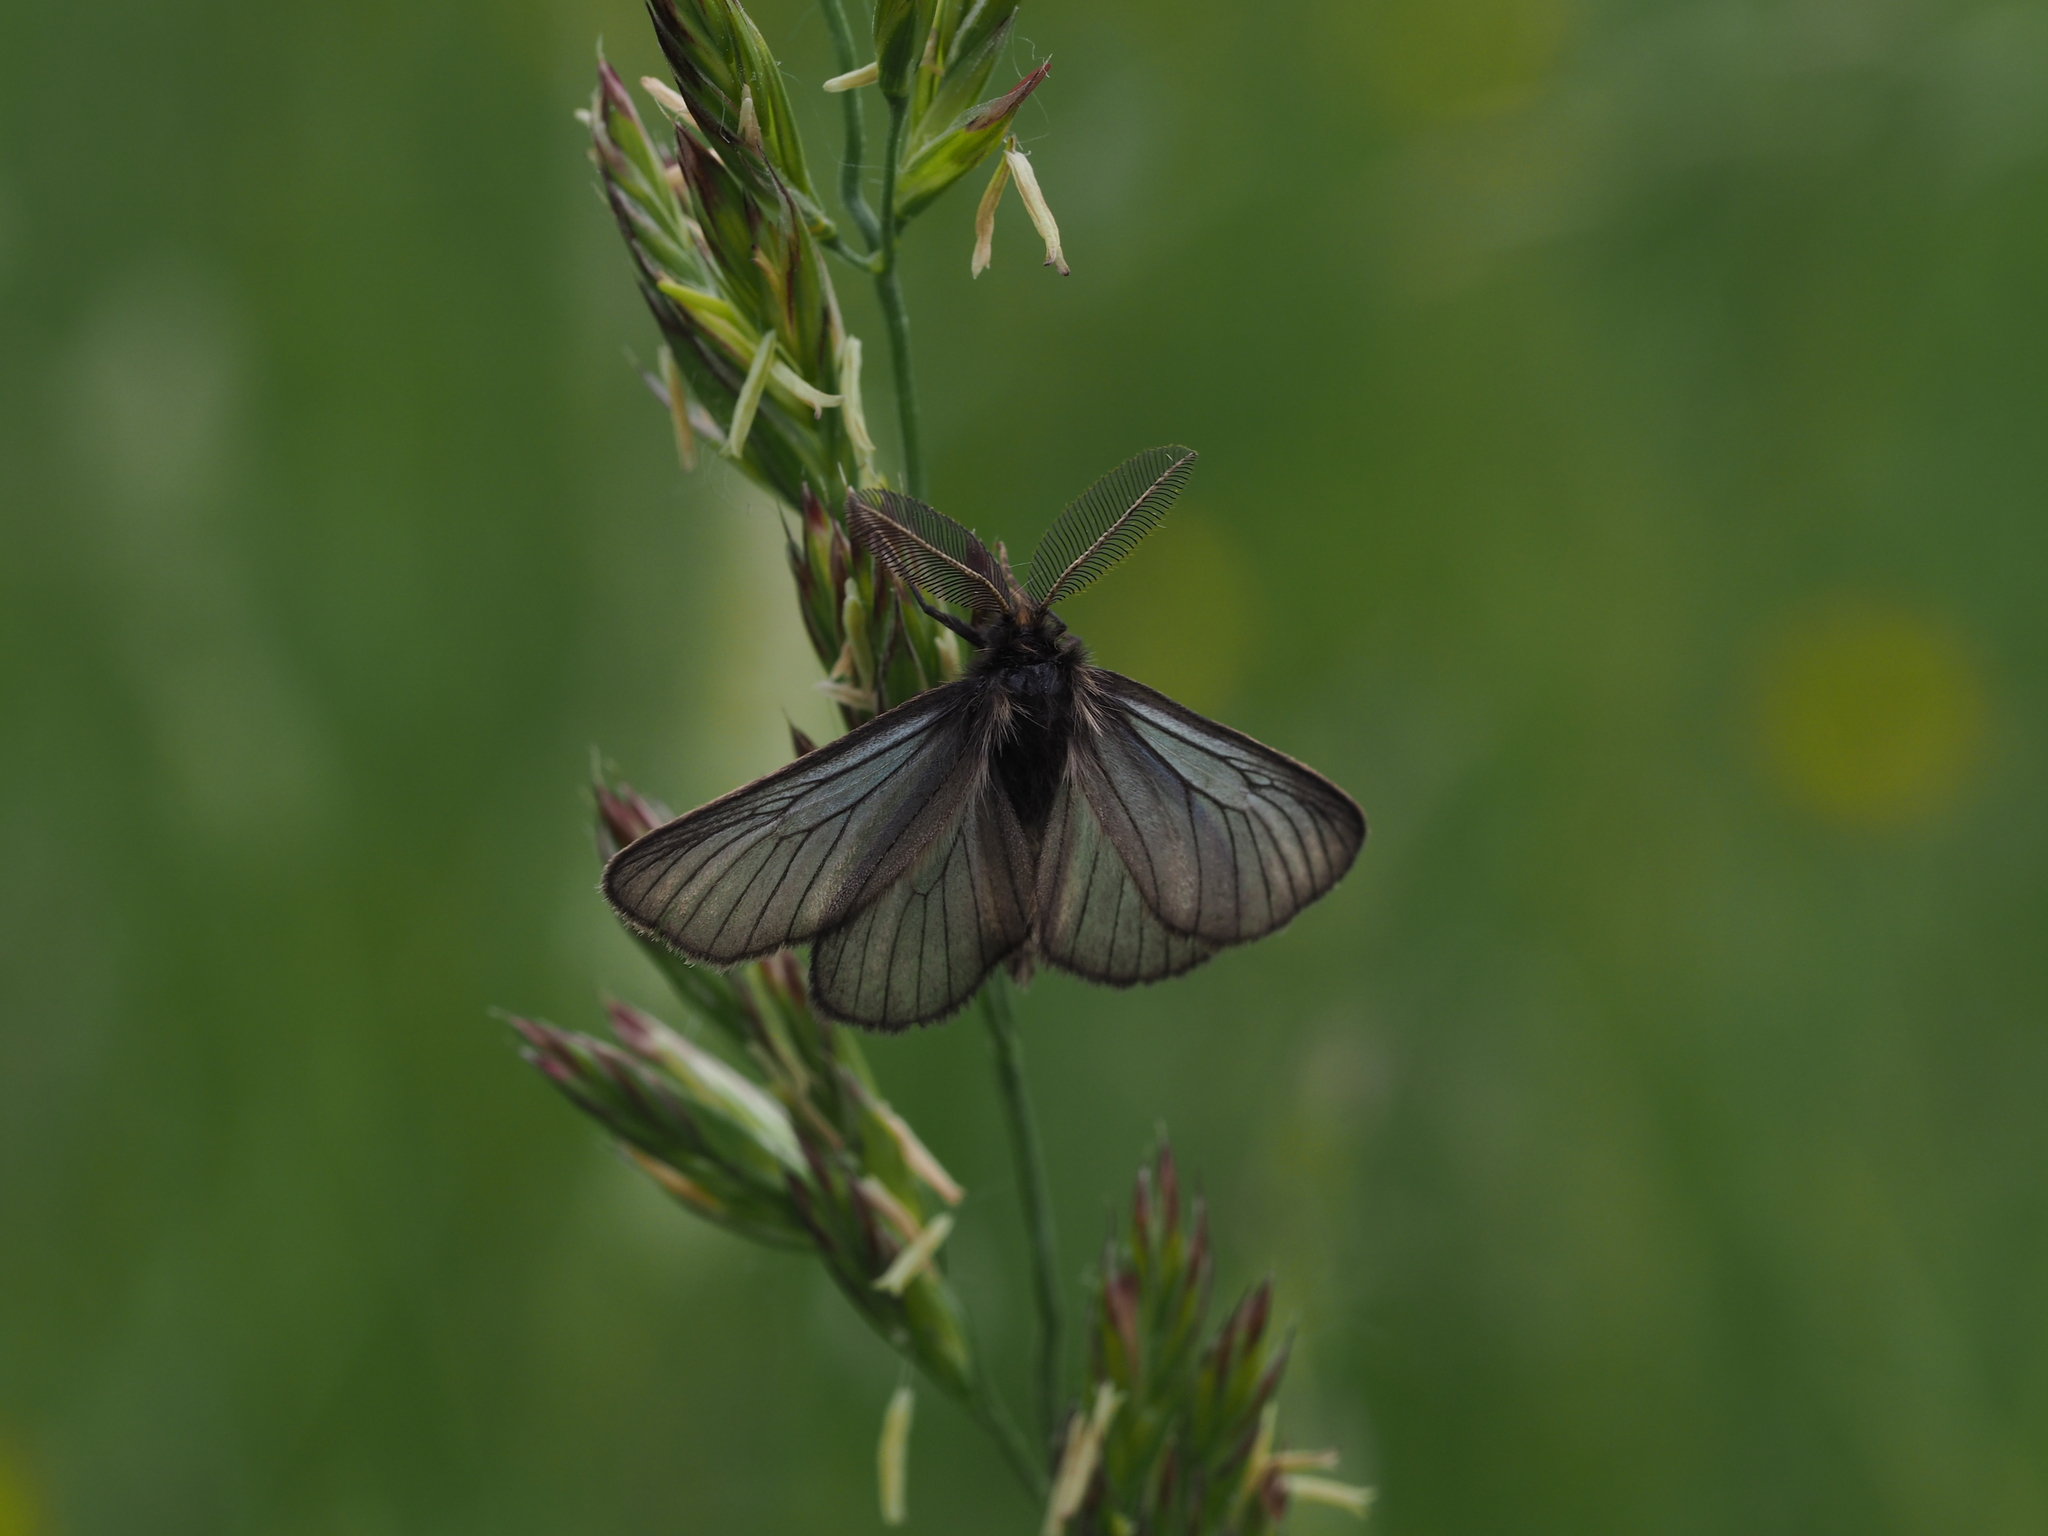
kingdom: Animalia
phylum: Arthropoda
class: Insecta
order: Lepidoptera
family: Erebidae
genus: Penthophera
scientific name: Penthophera morio
